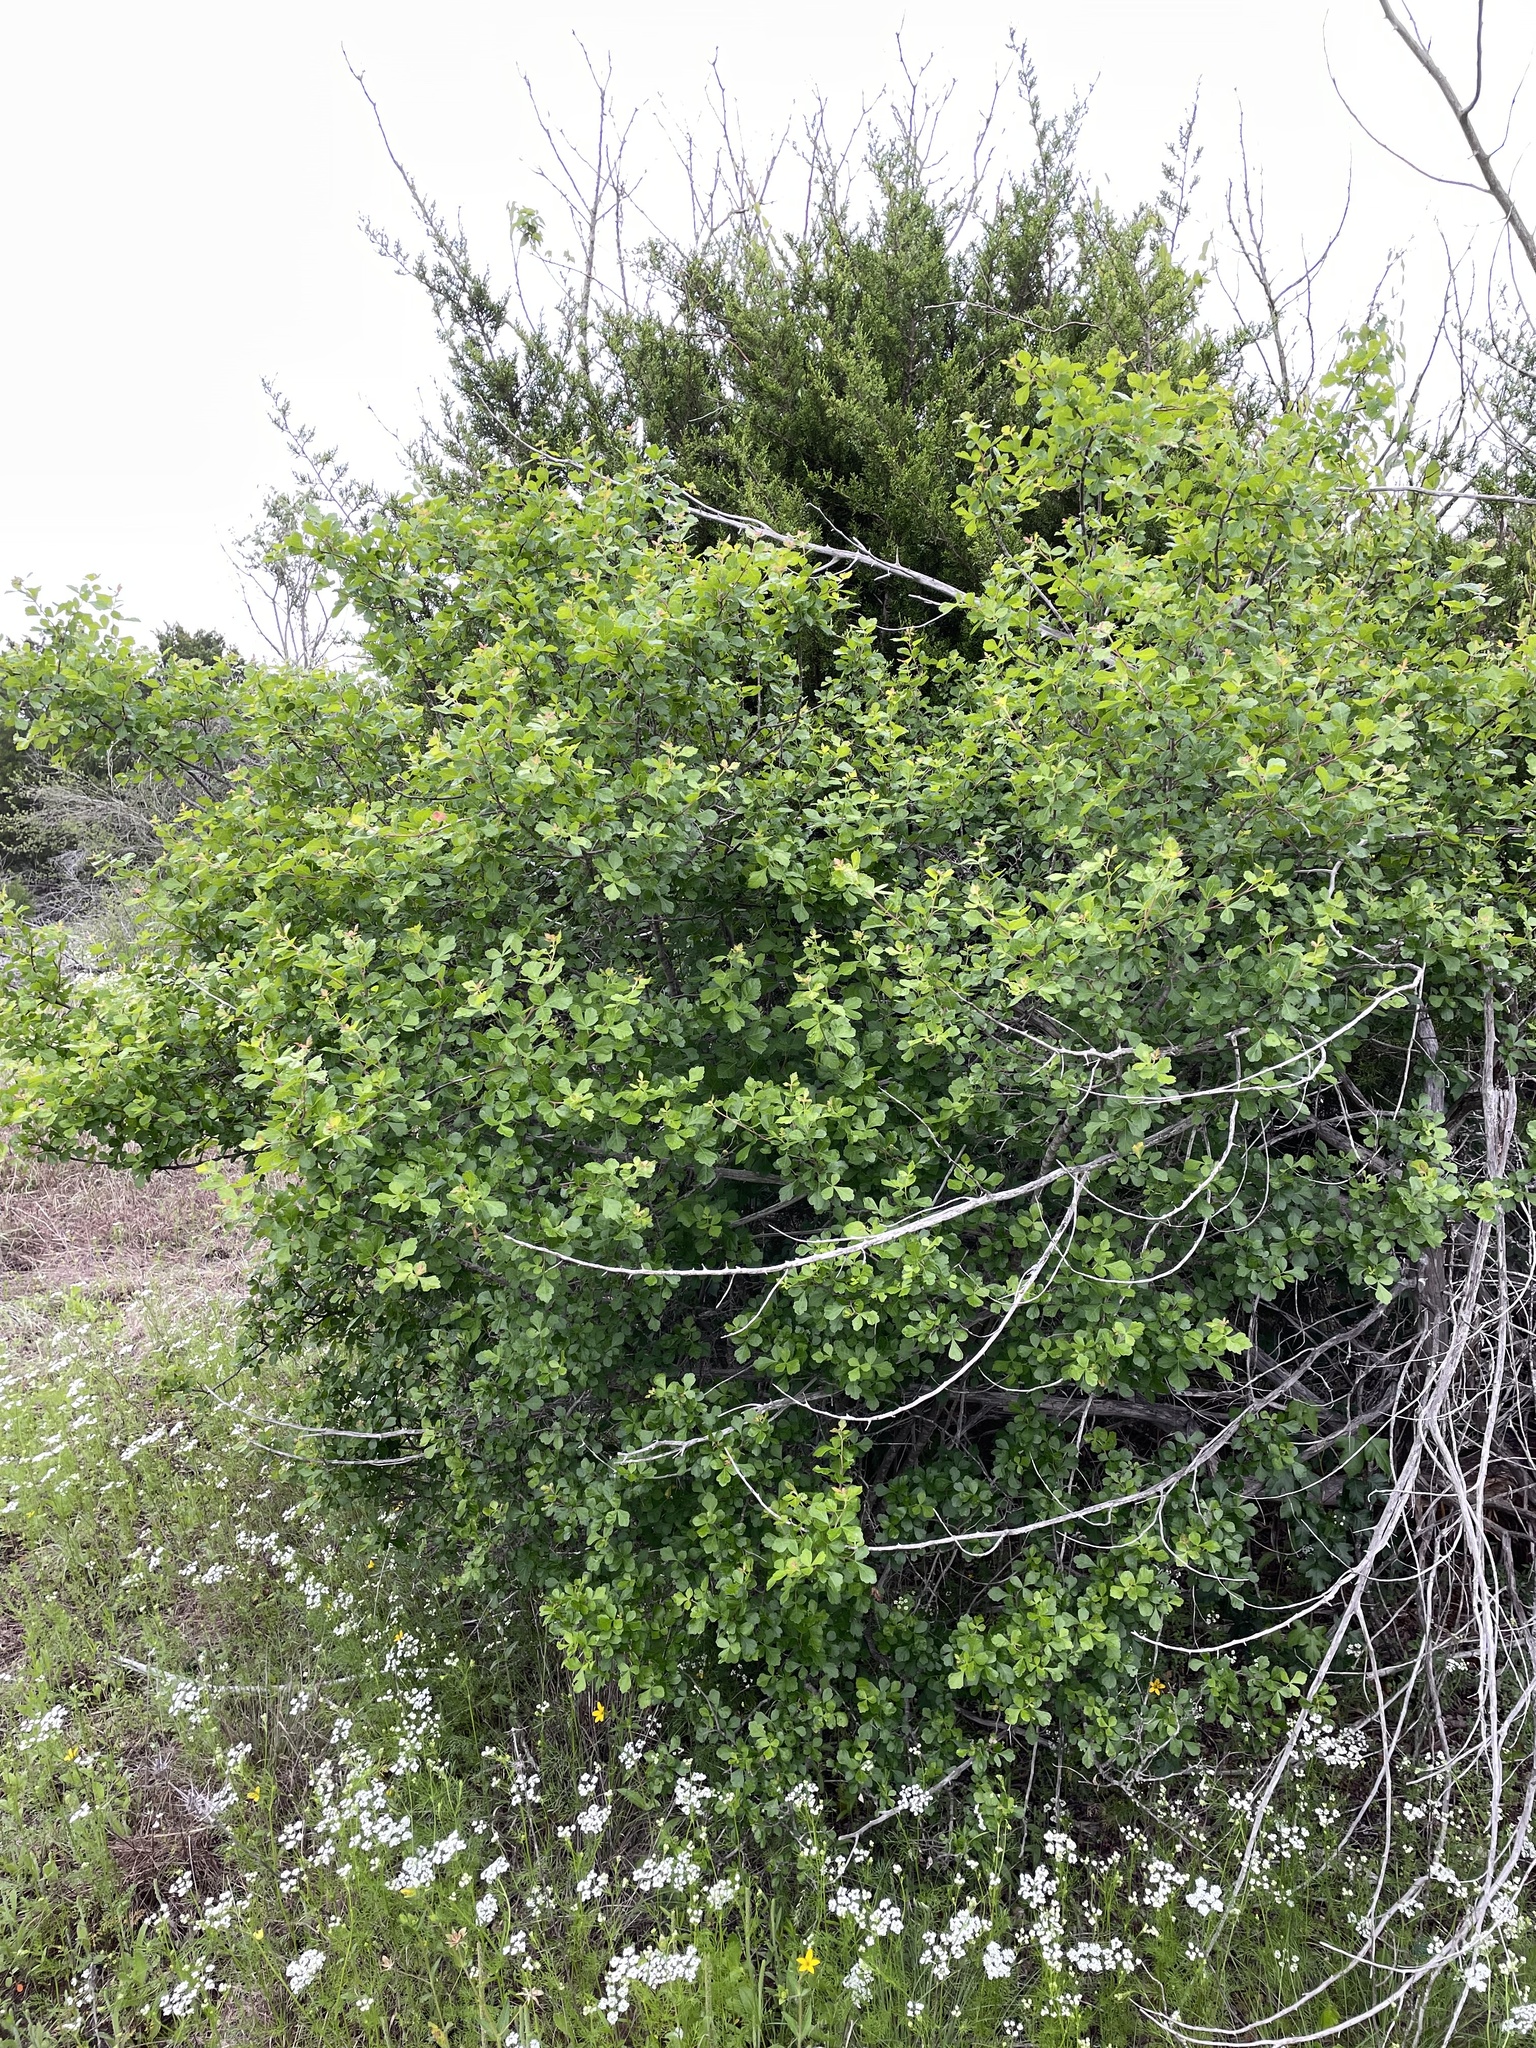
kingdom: Plantae
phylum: Tracheophyta
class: Magnoliopsida
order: Sapindales
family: Anacardiaceae
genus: Rhus
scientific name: Rhus aromatica
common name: Aromatic sumac
